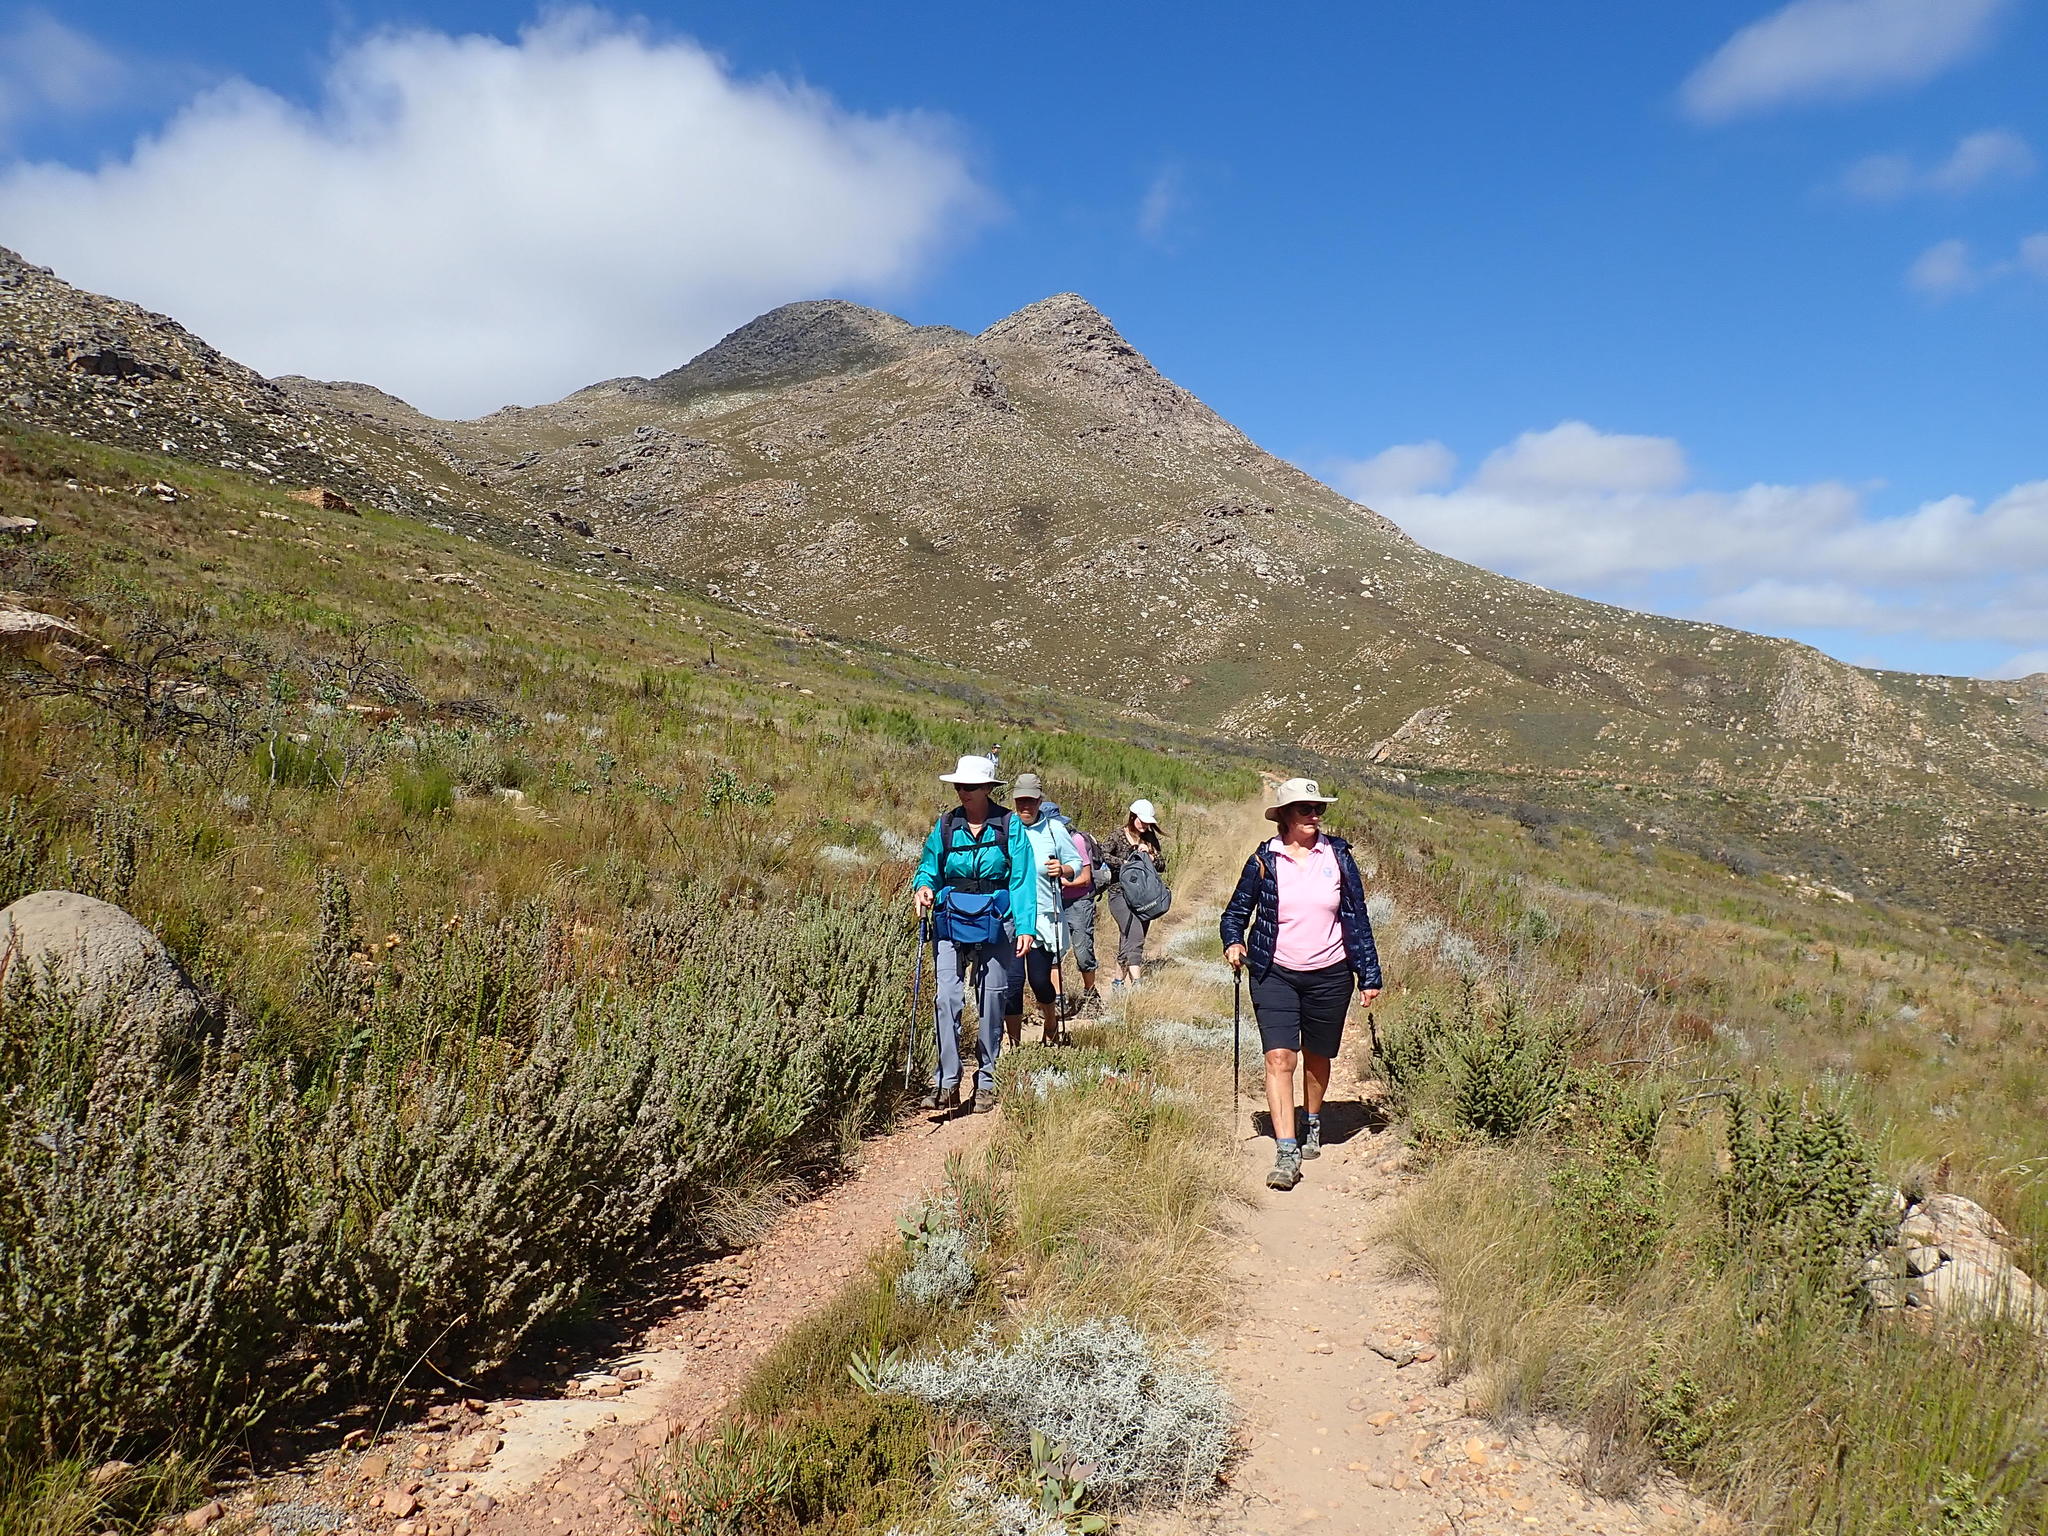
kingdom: Plantae
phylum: Tracheophyta
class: Magnoliopsida
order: Asterales
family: Asteraceae
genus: Seriphium
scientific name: Seriphium plumosum
